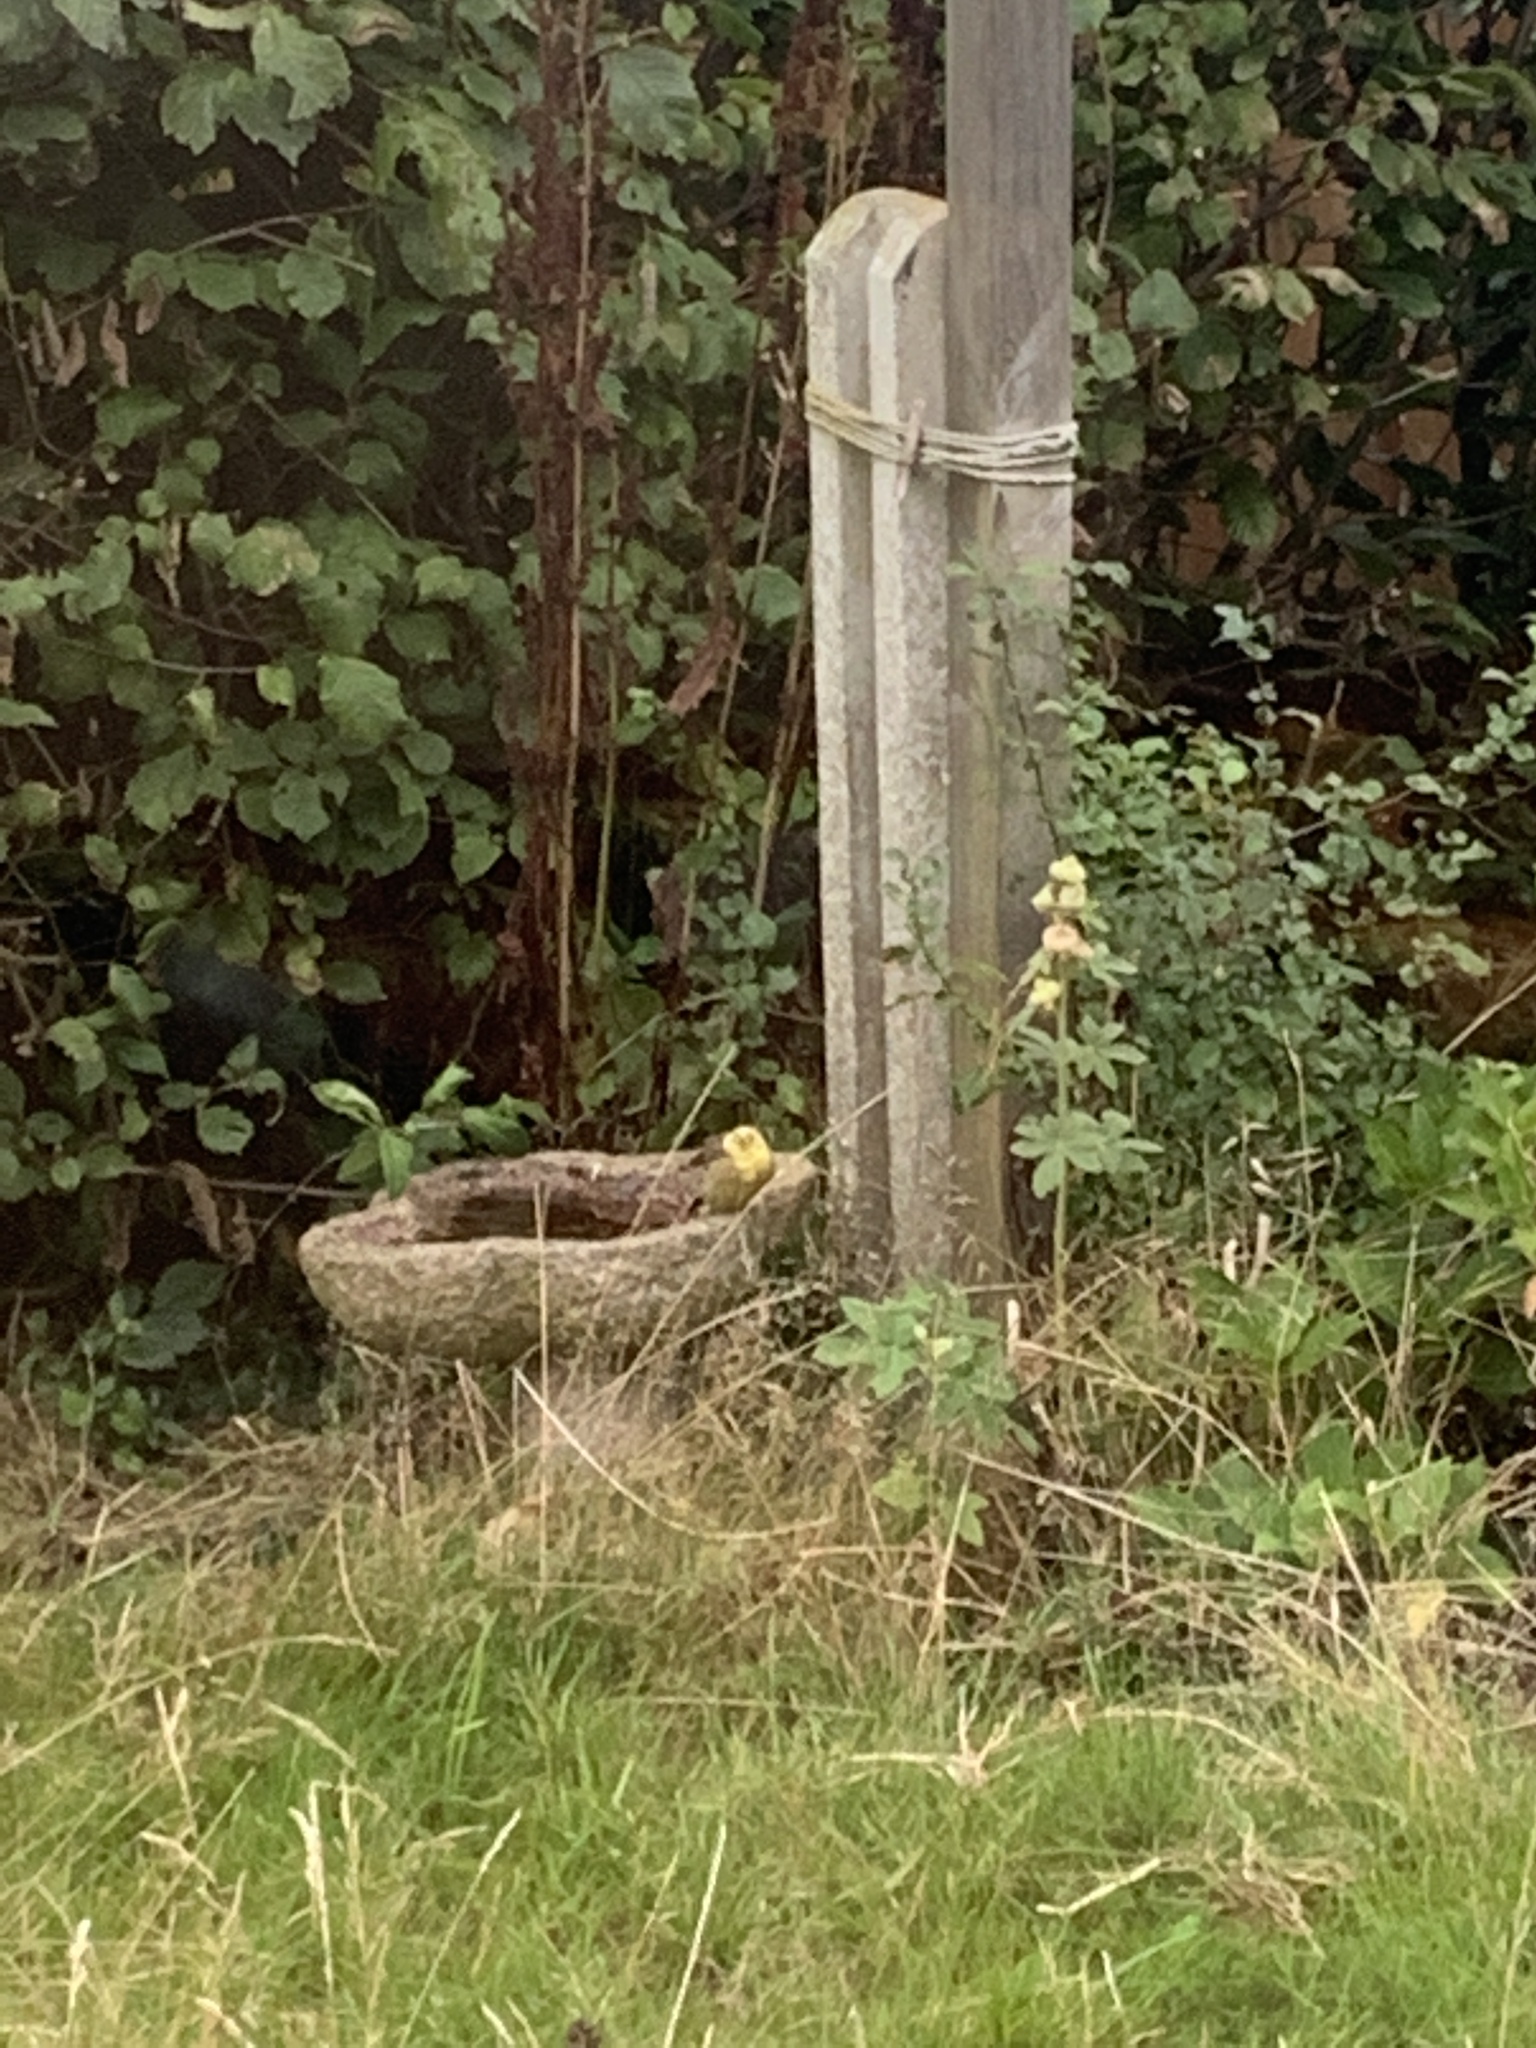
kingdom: Animalia
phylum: Chordata
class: Aves
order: Passeriformes
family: Emberizidae
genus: Emberiza
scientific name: Emberiza citrinella
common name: Yellowhammer
